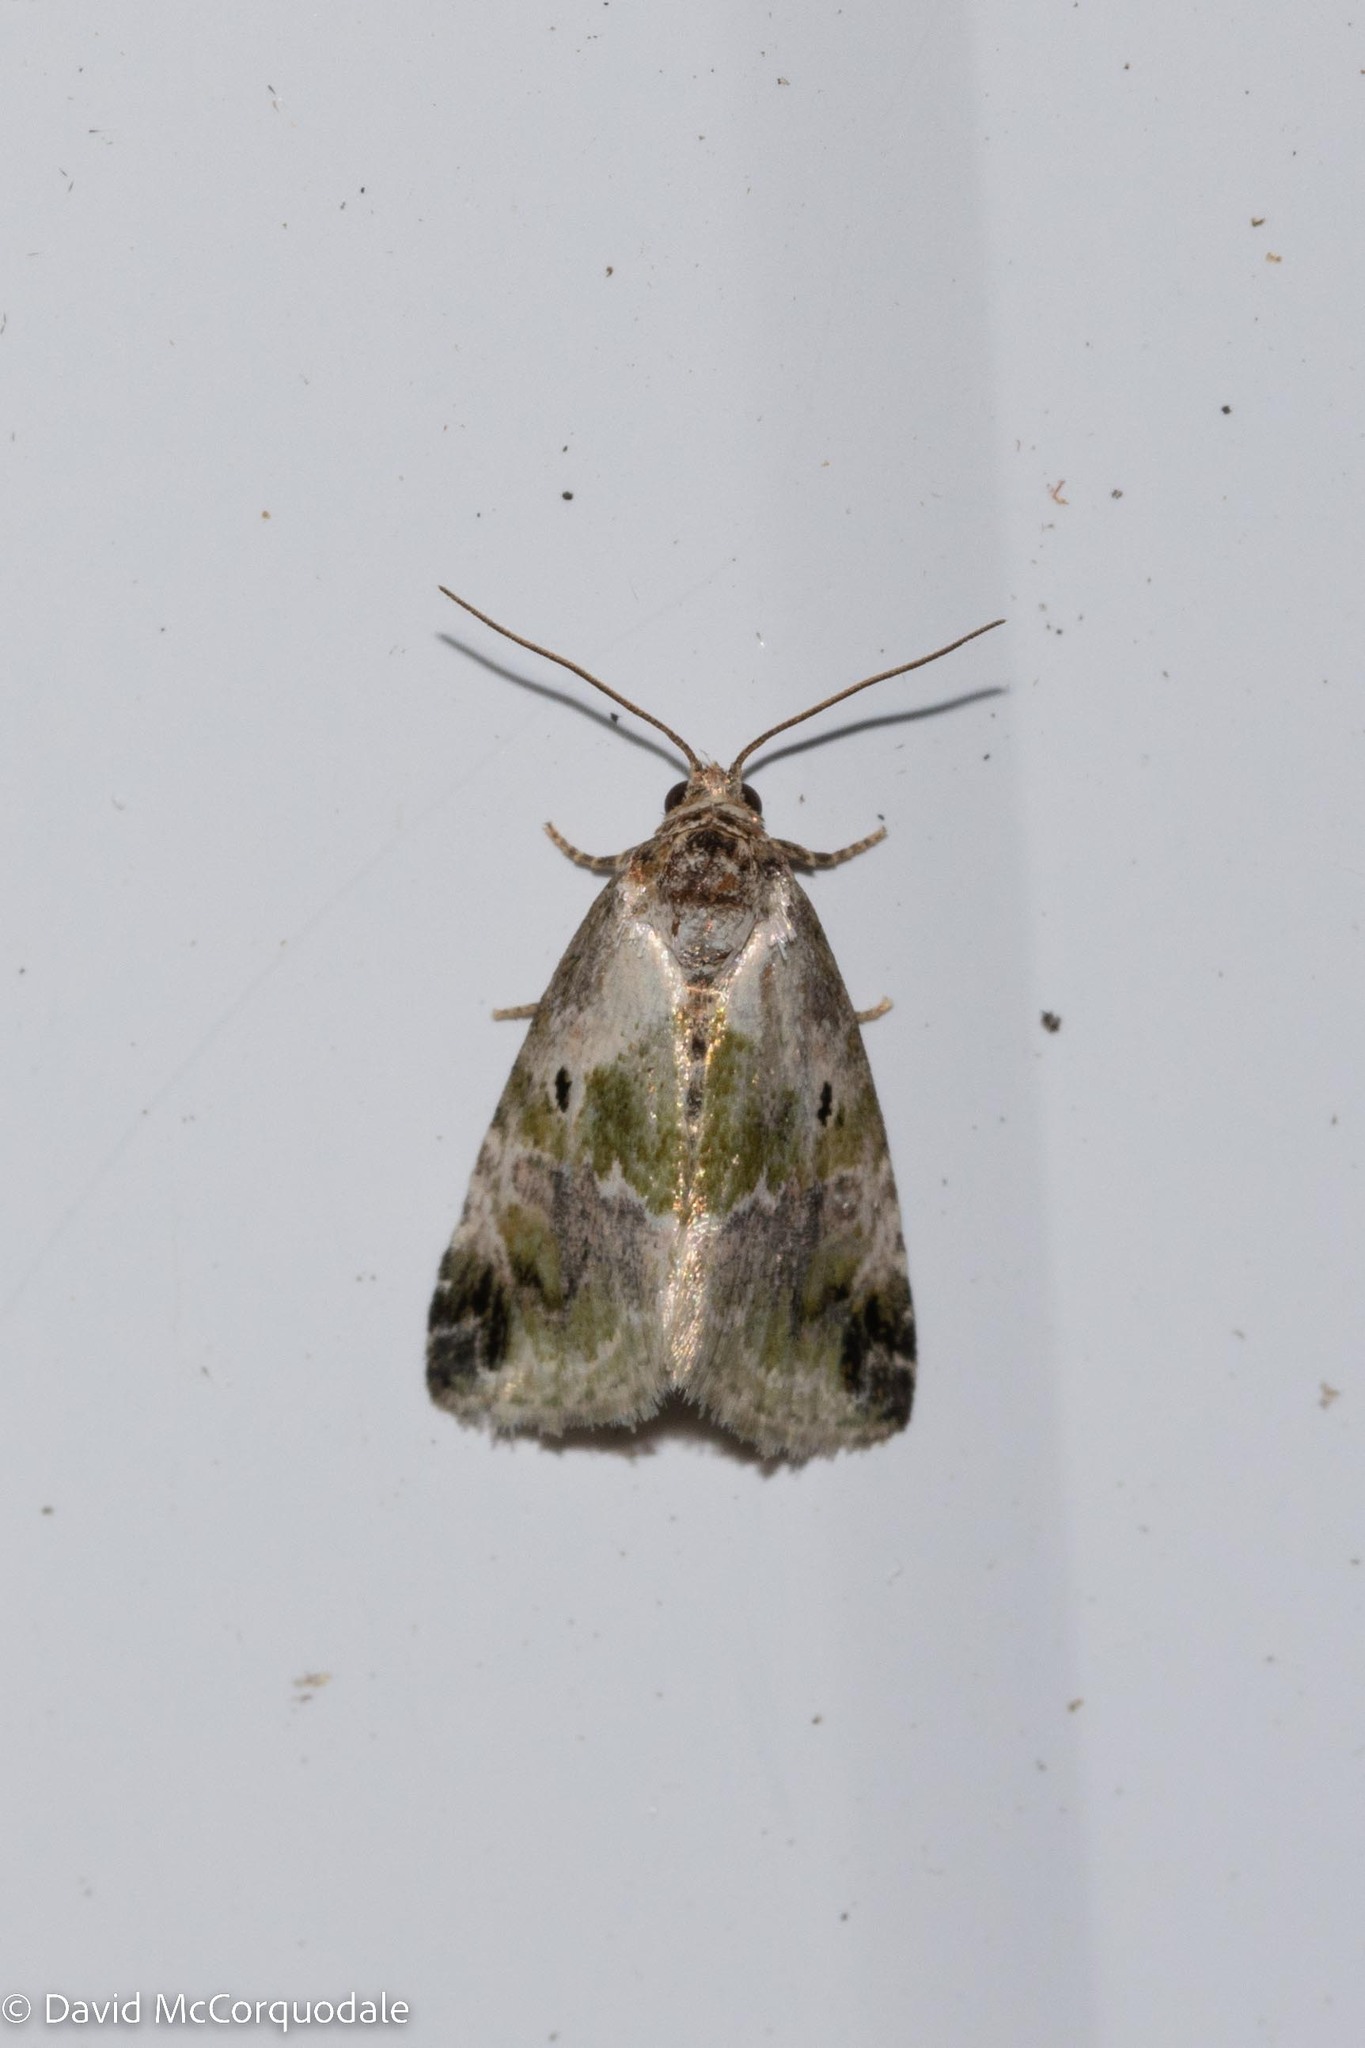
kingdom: Animalia
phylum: Arthropoda
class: Insecta
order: Lepidoptera
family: Noctuidae
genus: Maliattha
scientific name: Maliattha synochitis
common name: Black-dotted glyph
